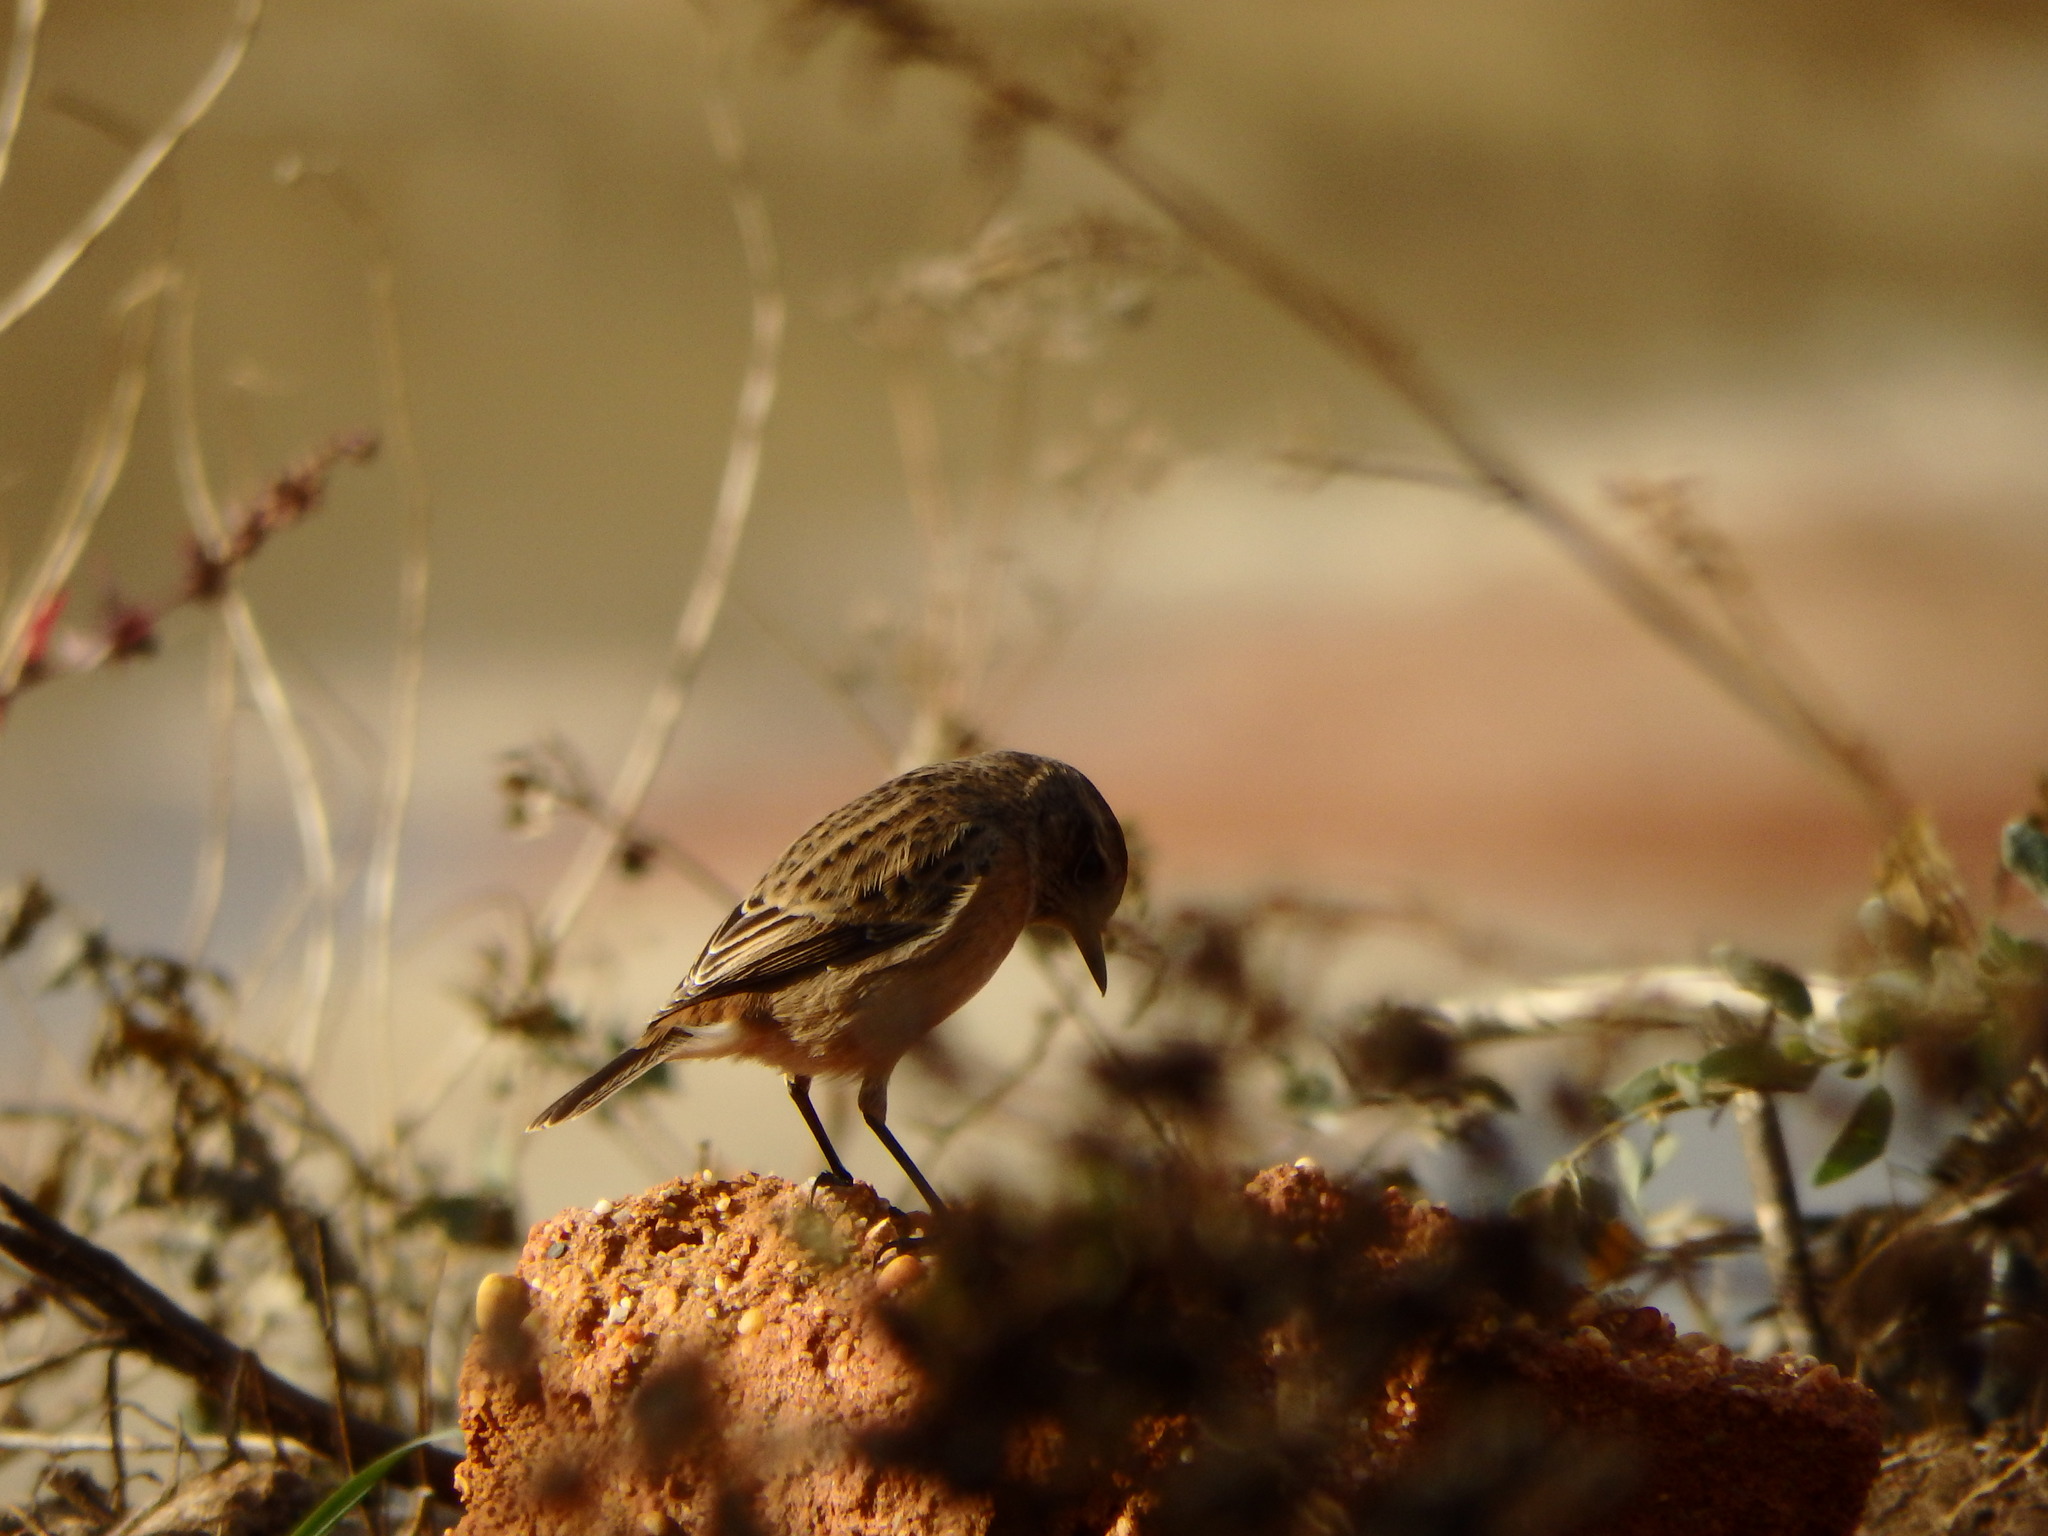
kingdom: Animalia
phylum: Chordata
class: Aves
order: Passeriformes
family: Muscicapidae
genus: Saxicola
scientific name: Saxicola rubicola
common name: European stonechat
